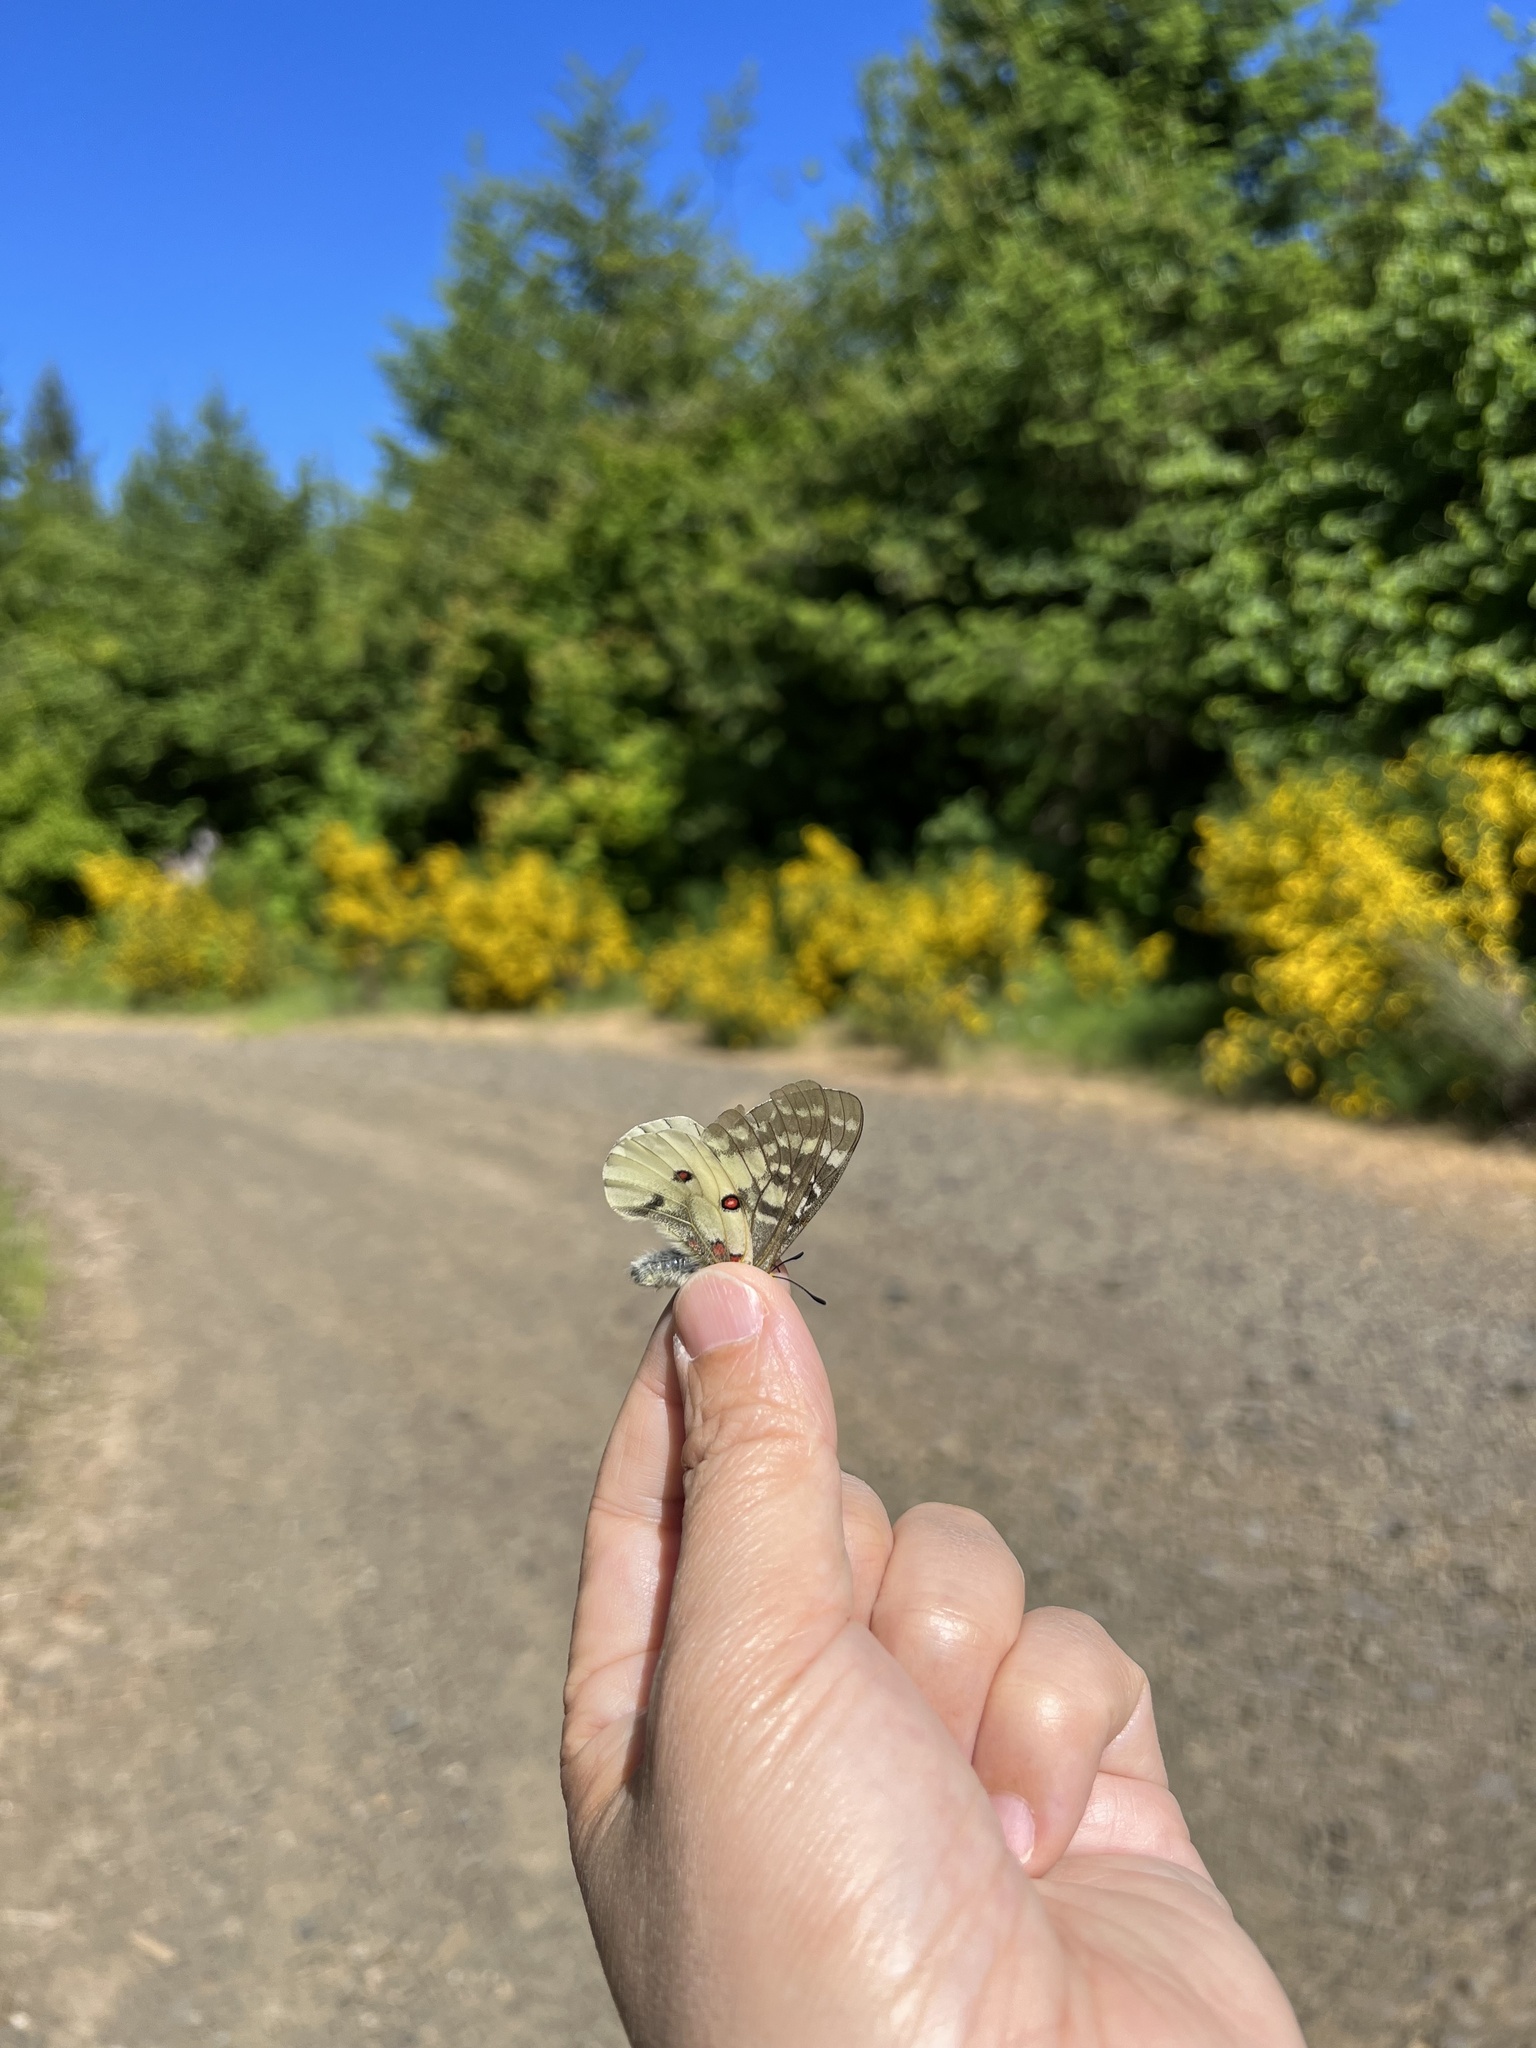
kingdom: Animalia
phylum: Arthropoda
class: Insecta
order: Lepidoptera
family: Papilionidae
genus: Parnassius
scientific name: Parnassius clodius
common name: American apollo
